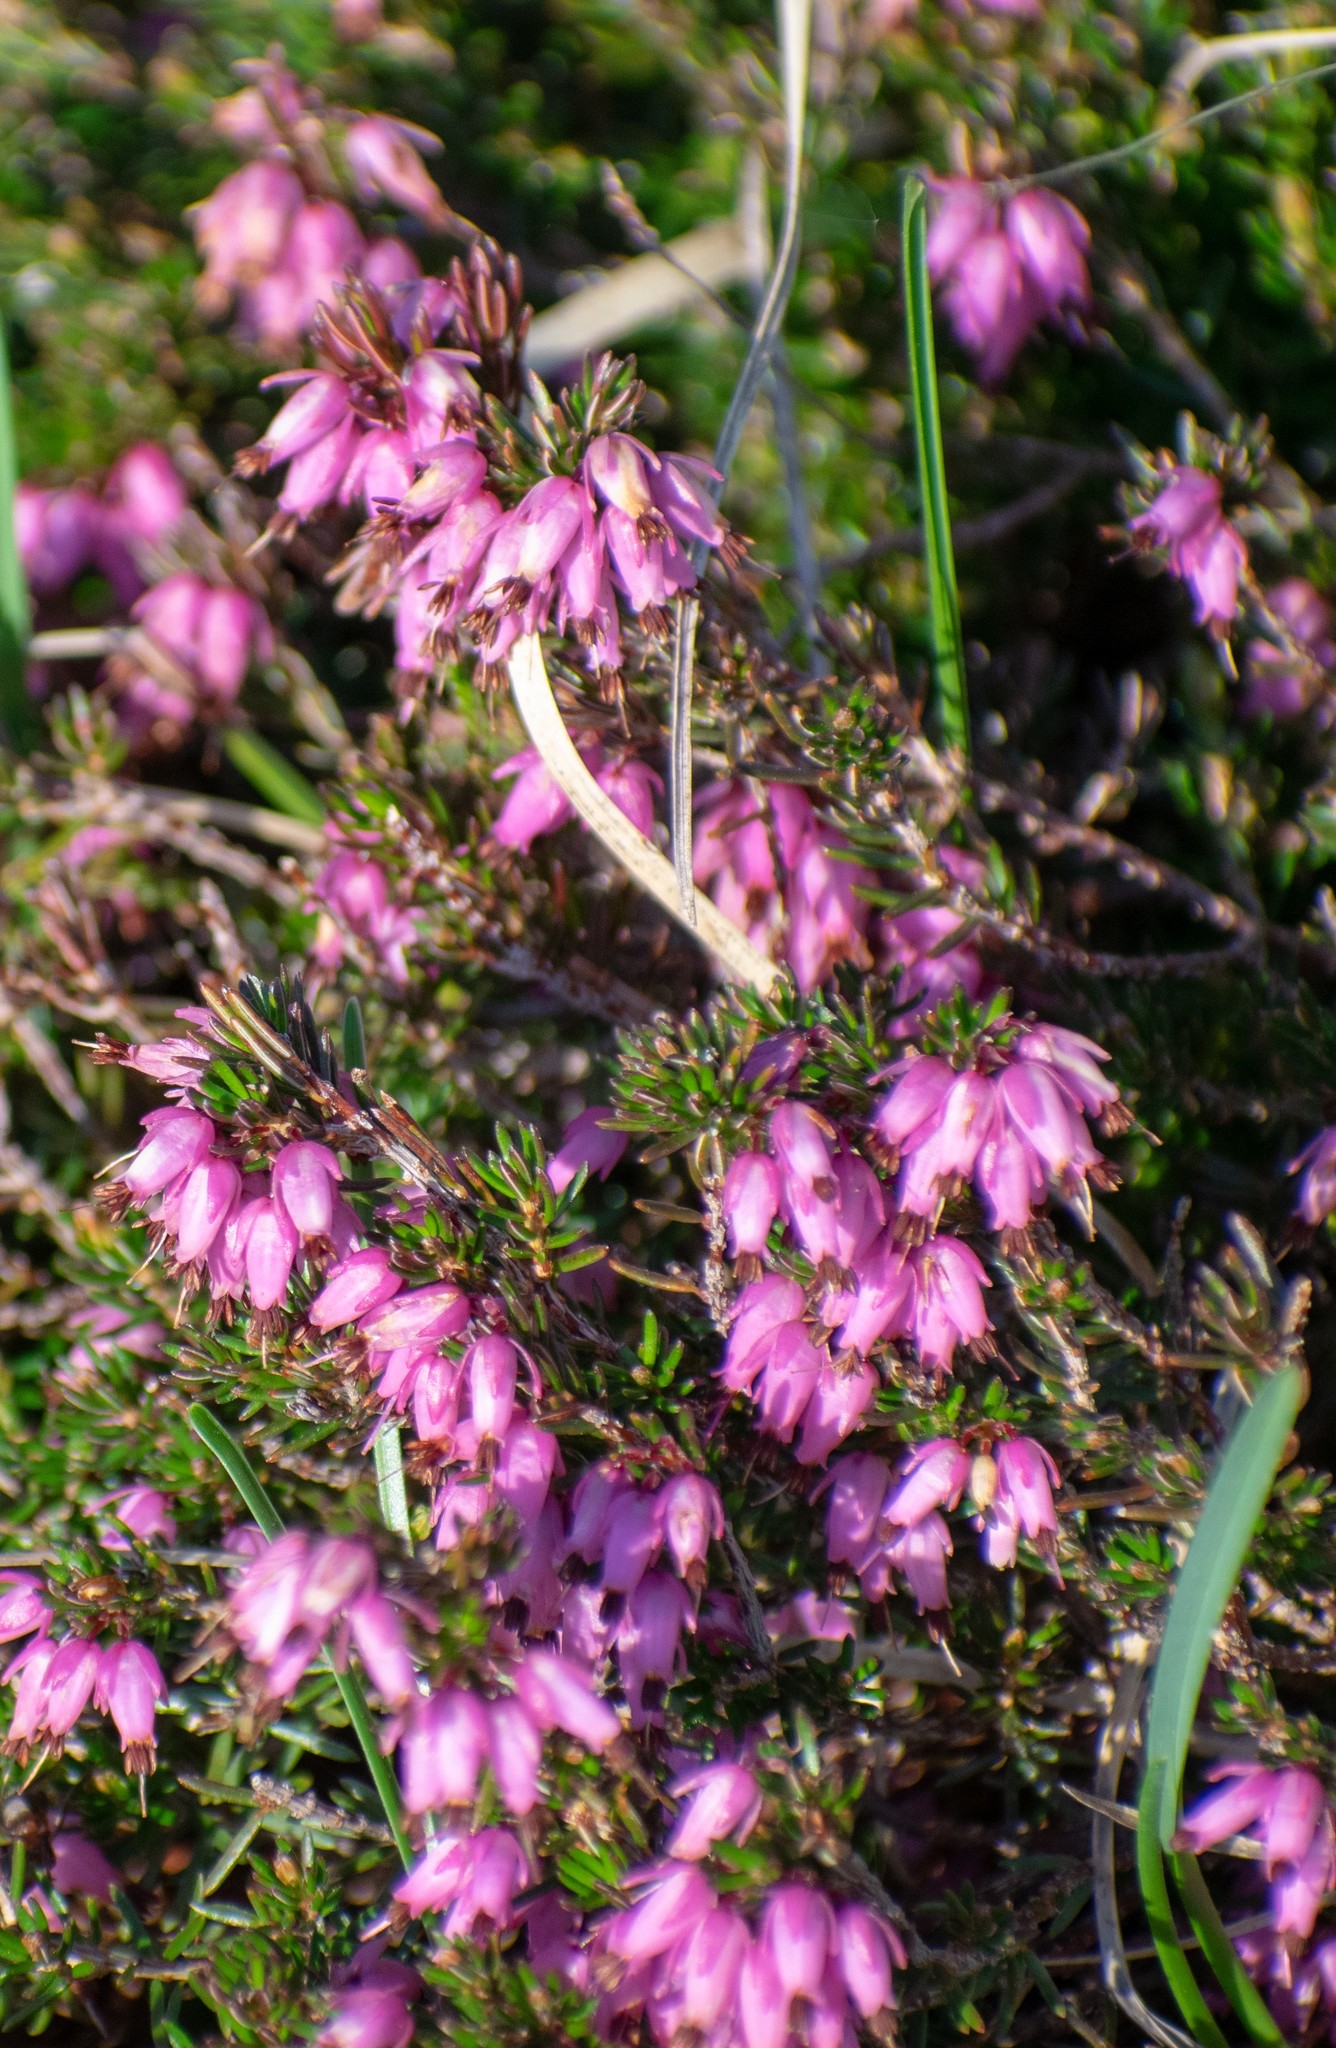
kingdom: Plantae
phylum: Tracheophyta
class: Magnoliopsida
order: Ericales
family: Ericaceae
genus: Erica
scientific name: Erica carnea
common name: Winter heath
